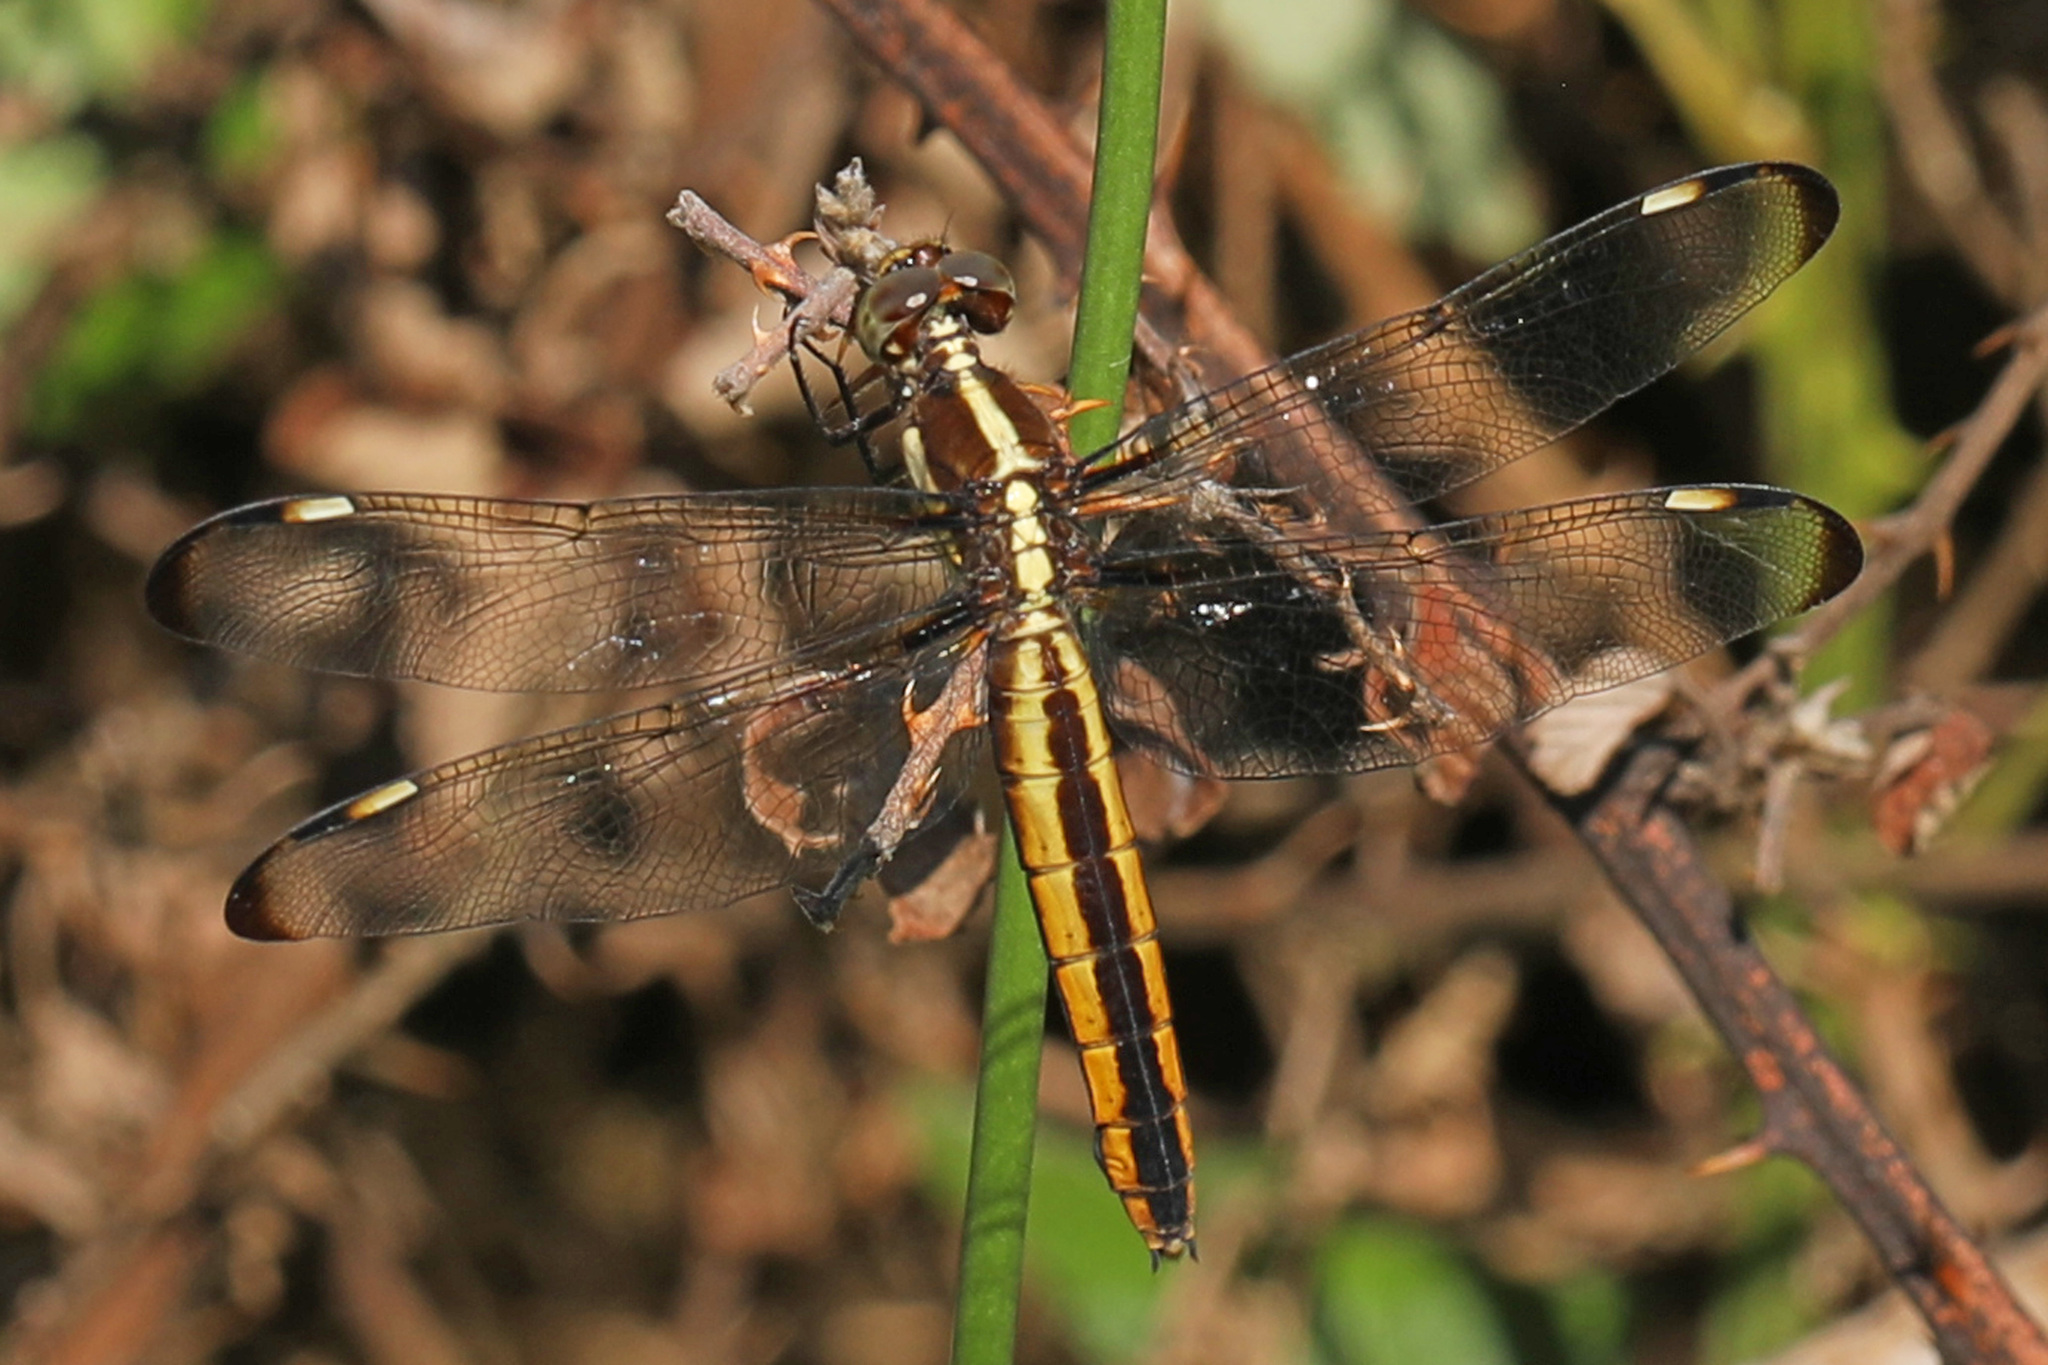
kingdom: Animalia
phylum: Arthropoda
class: Insecta
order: Odonata
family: Libellulidae
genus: Libellula
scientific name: Libellula cyanea
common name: Spangled skimmer
